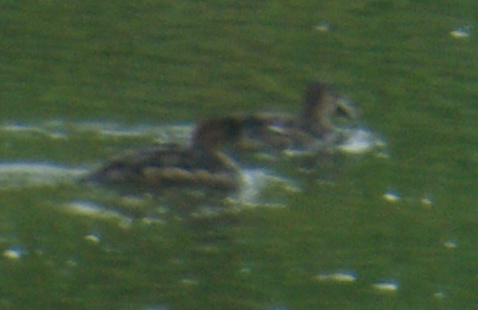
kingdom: Animalia
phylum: Chordata
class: Aves
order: Anseriformes
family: Anatidae
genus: Lophodytes
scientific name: Lophodytes cucullatus
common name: Hooded merganser
